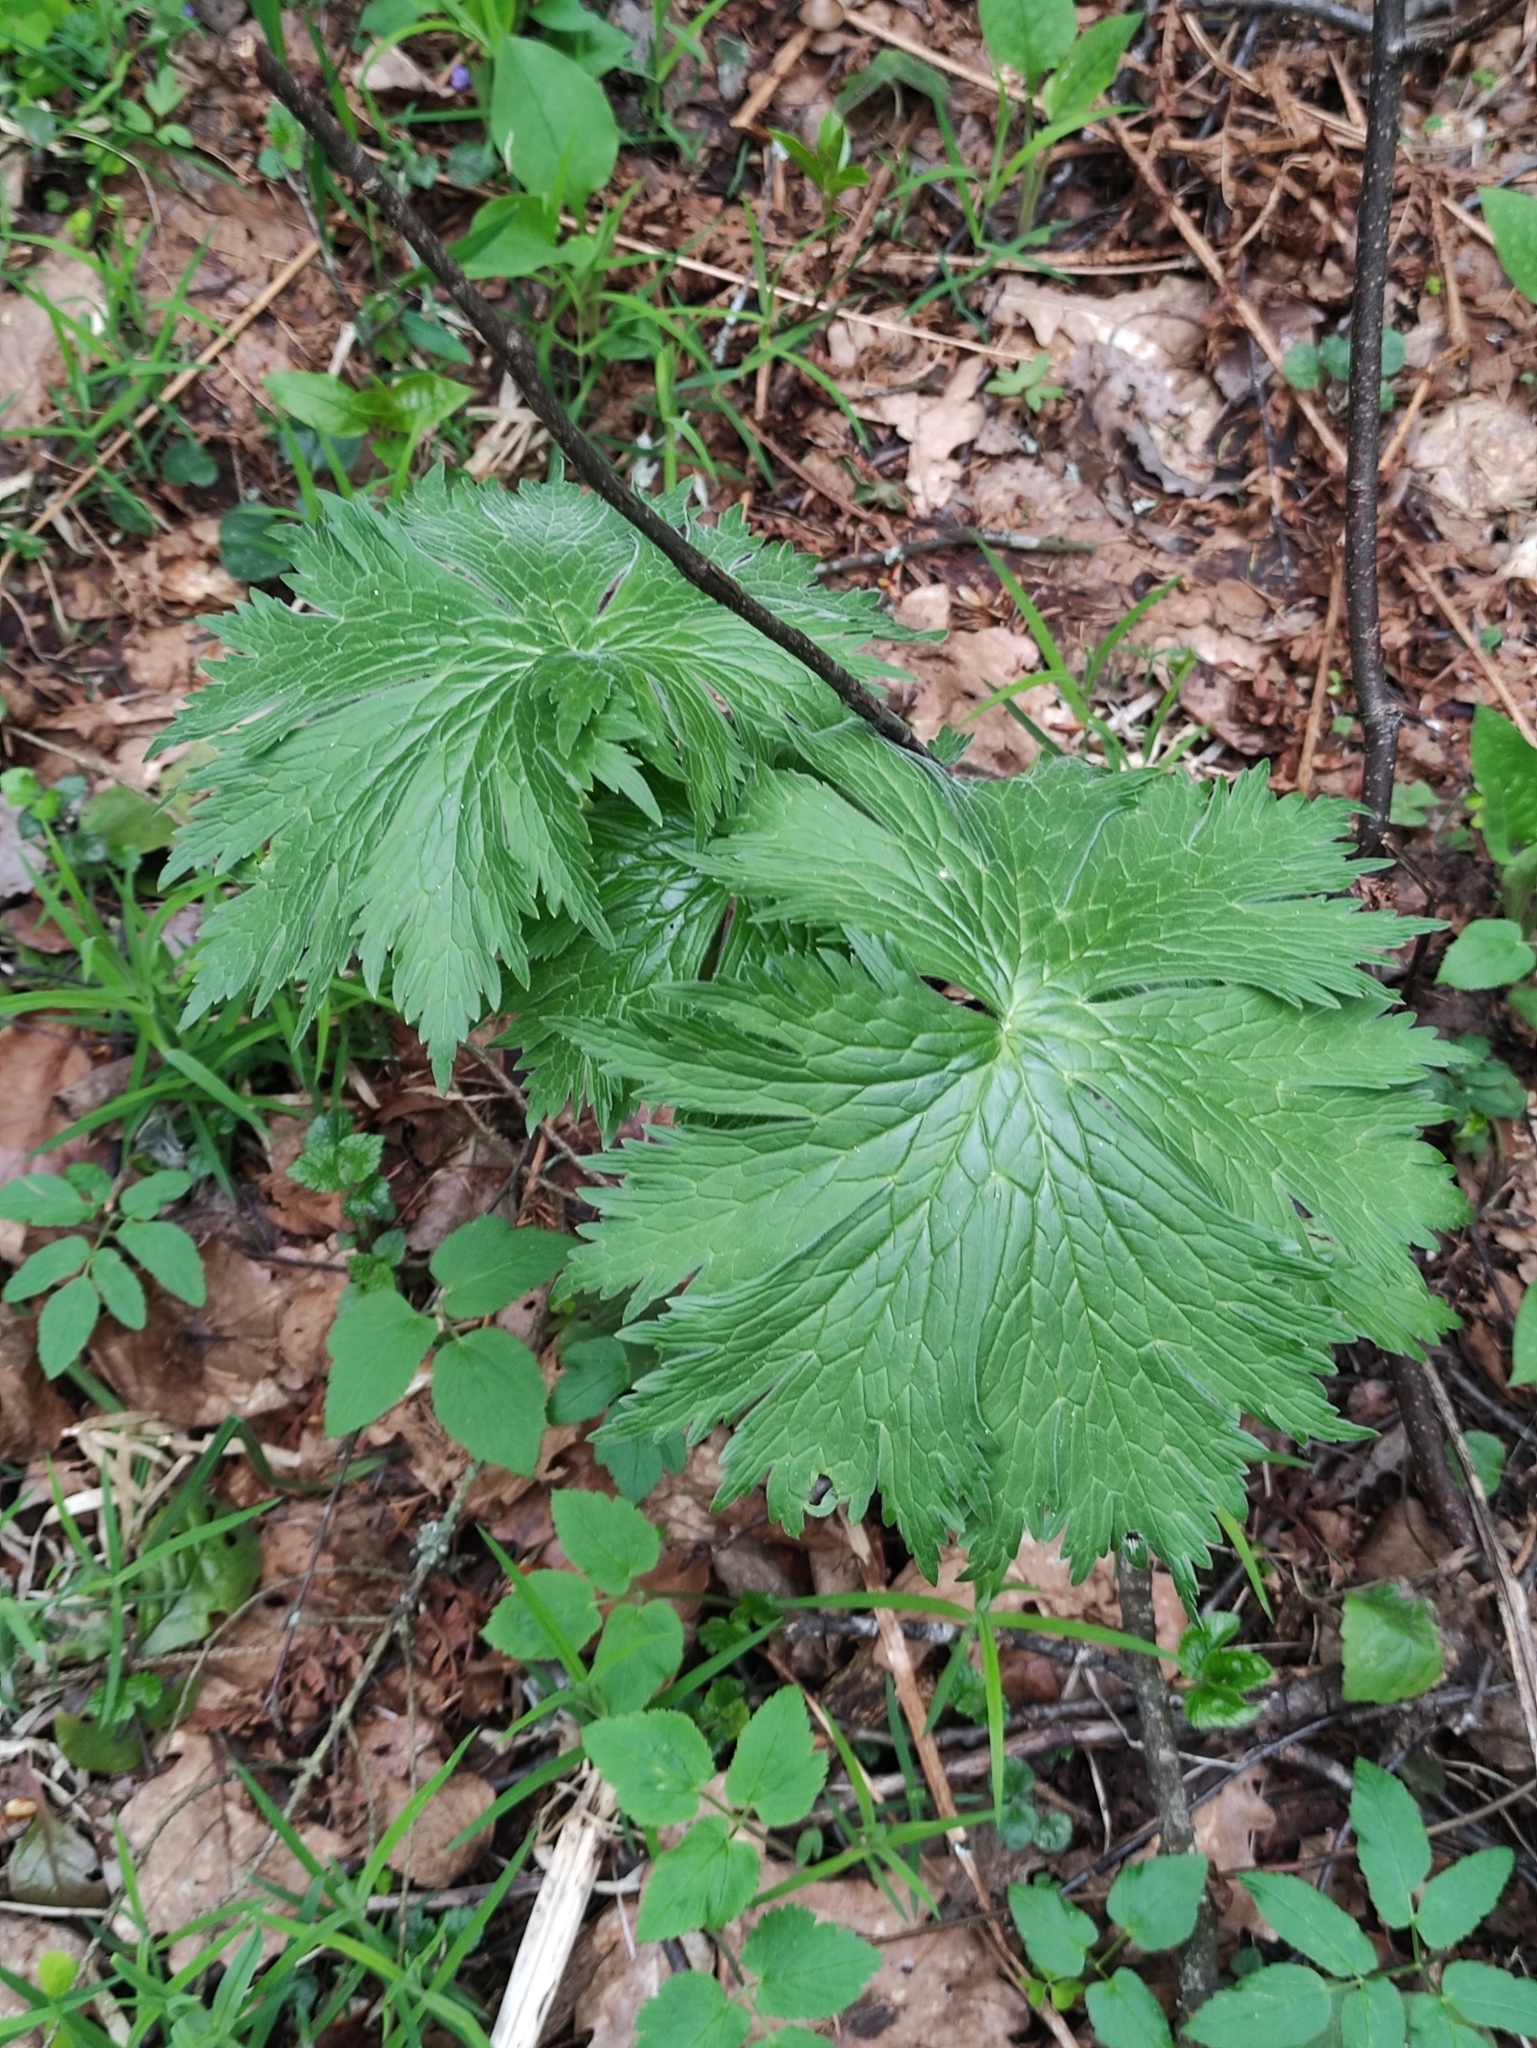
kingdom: Plantae
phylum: Tracheophyta
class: Magnoliopsida
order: Ranunculales
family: Ranunculaceae
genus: Aconitum
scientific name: Aconitum septentrionale
